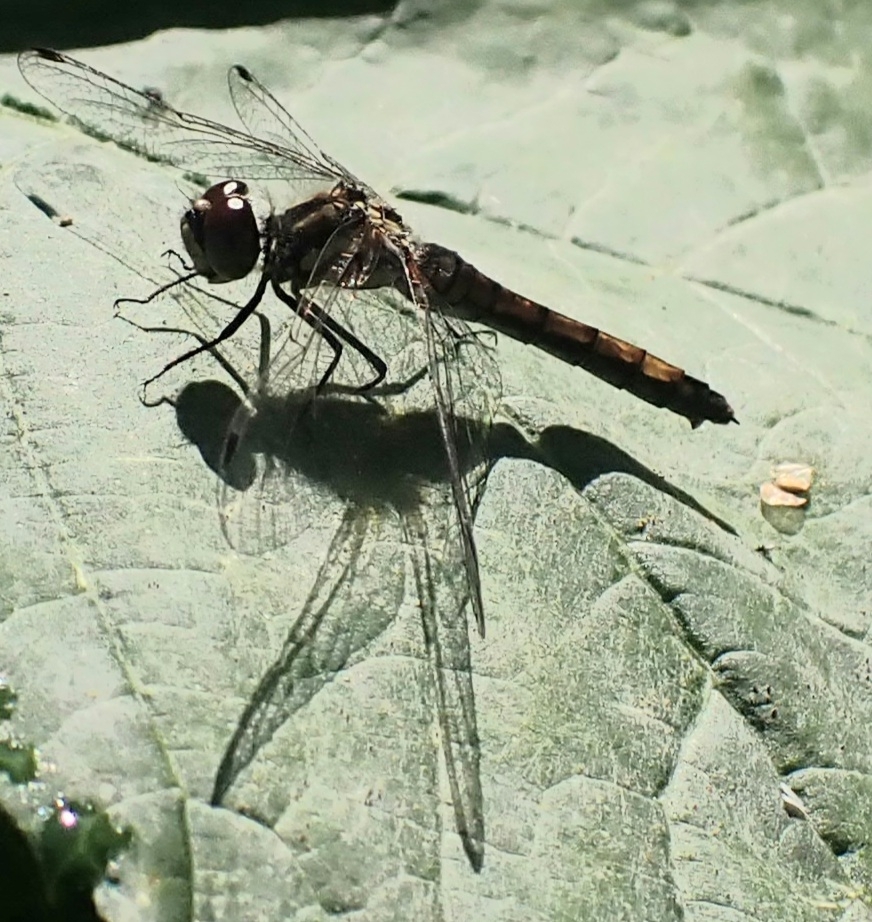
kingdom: Animalia
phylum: Arthropoda
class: Insecta
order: Odonata
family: Libellulidae
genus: Sympetrum
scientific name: Sympetrum danae
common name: Black darter
